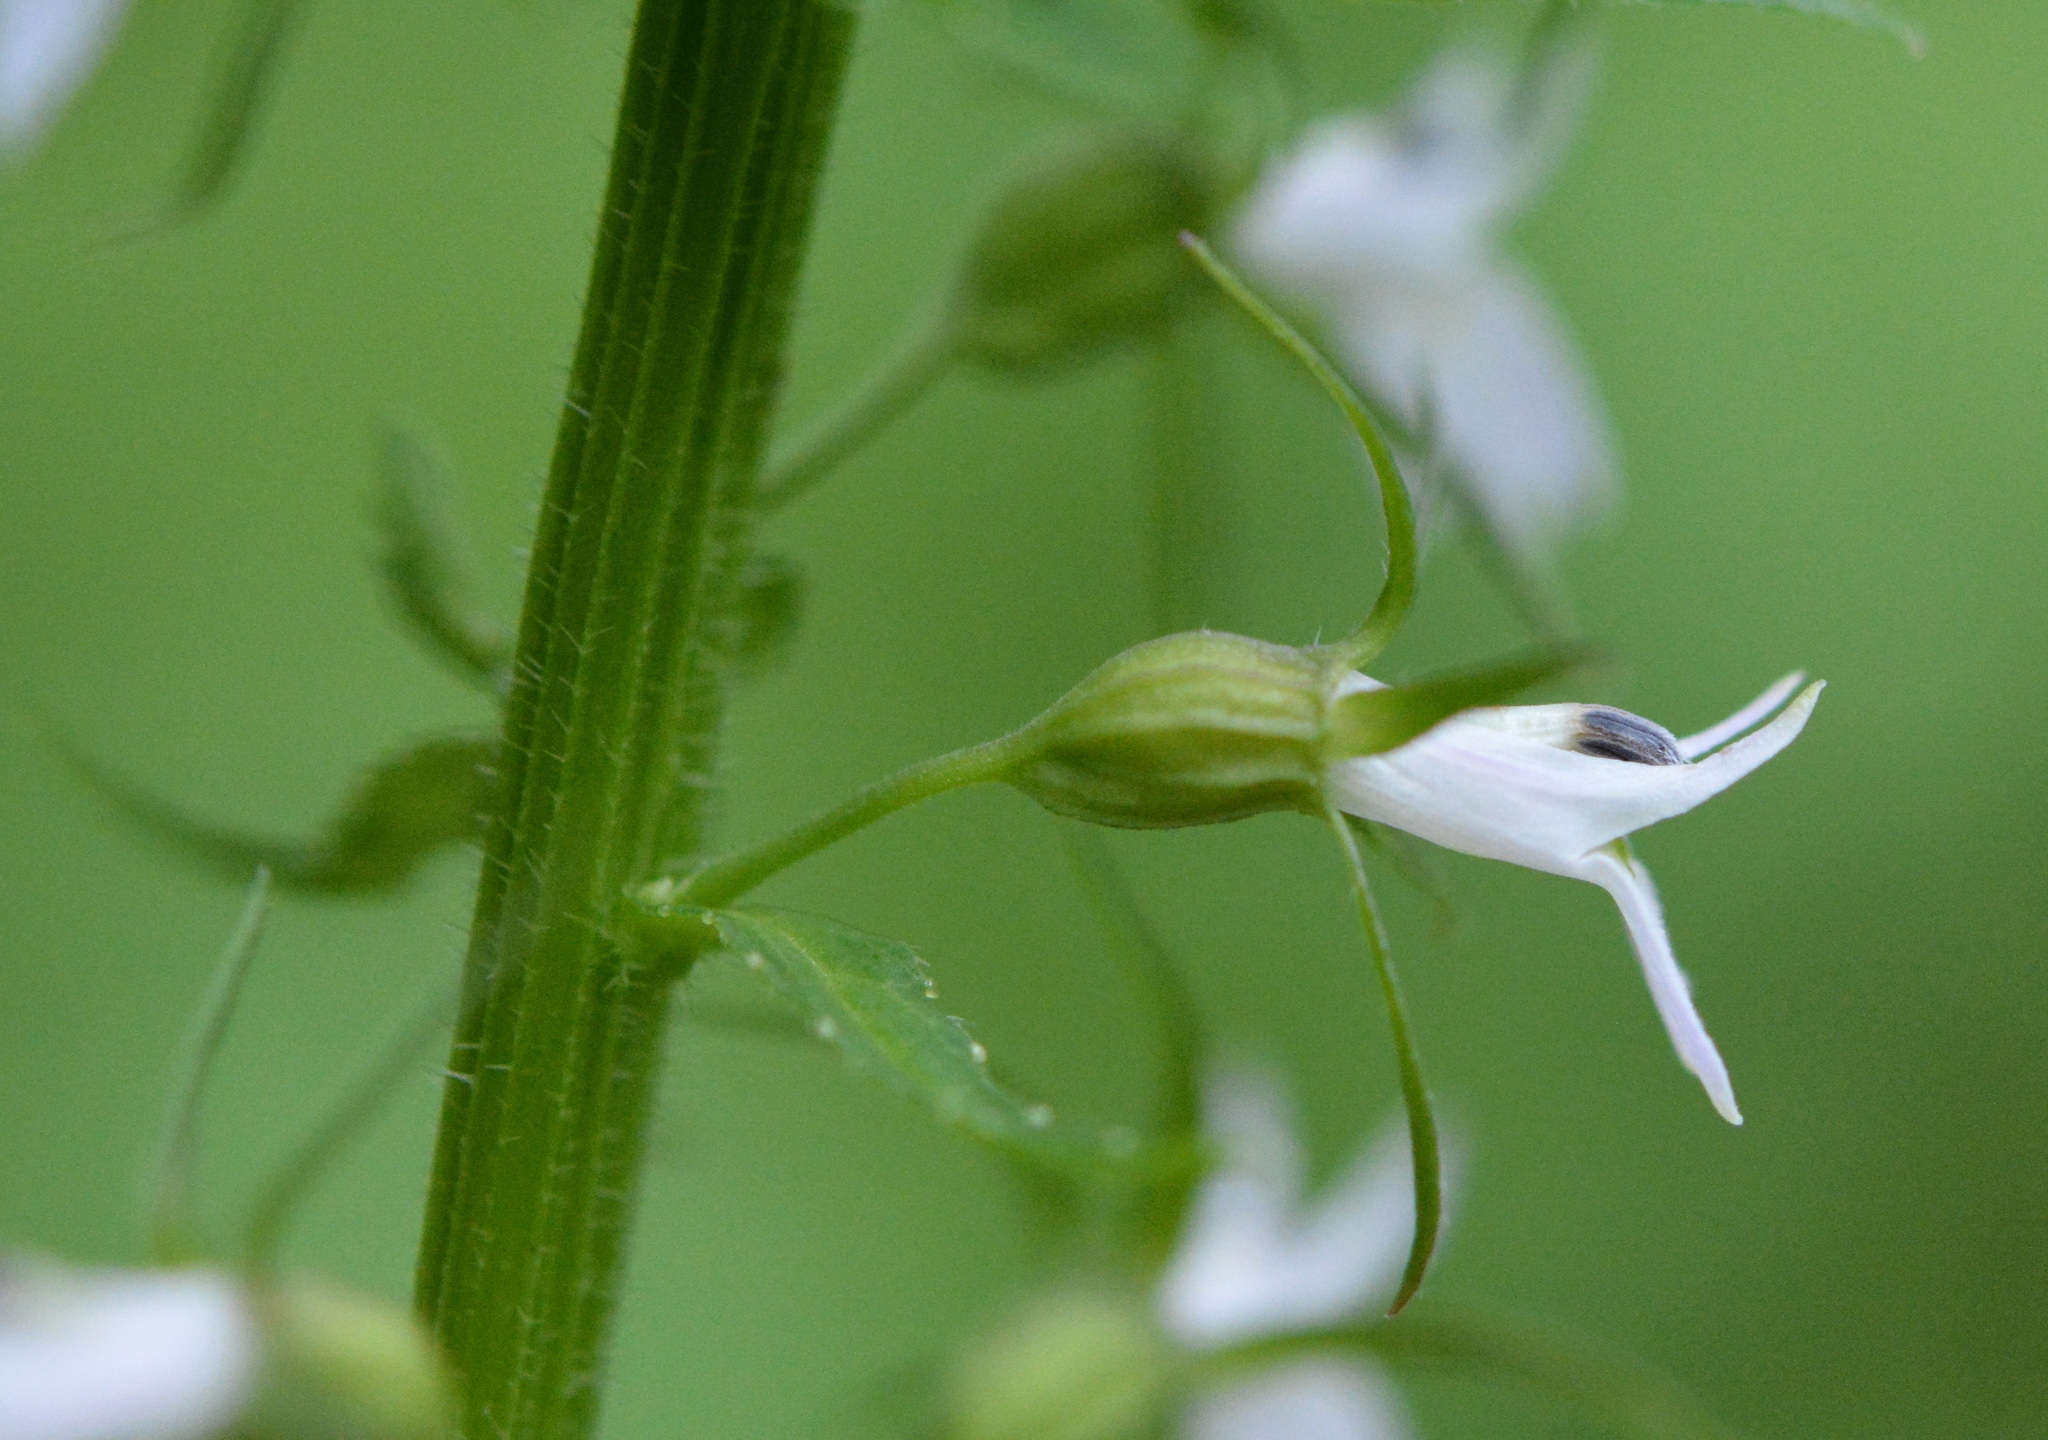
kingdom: Plantae
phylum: Tracheophyta
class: Magnoliopsida
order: Asterales
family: Campanulaceae
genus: Lobelia
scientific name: Lobelia inflata
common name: Indian tobacco
